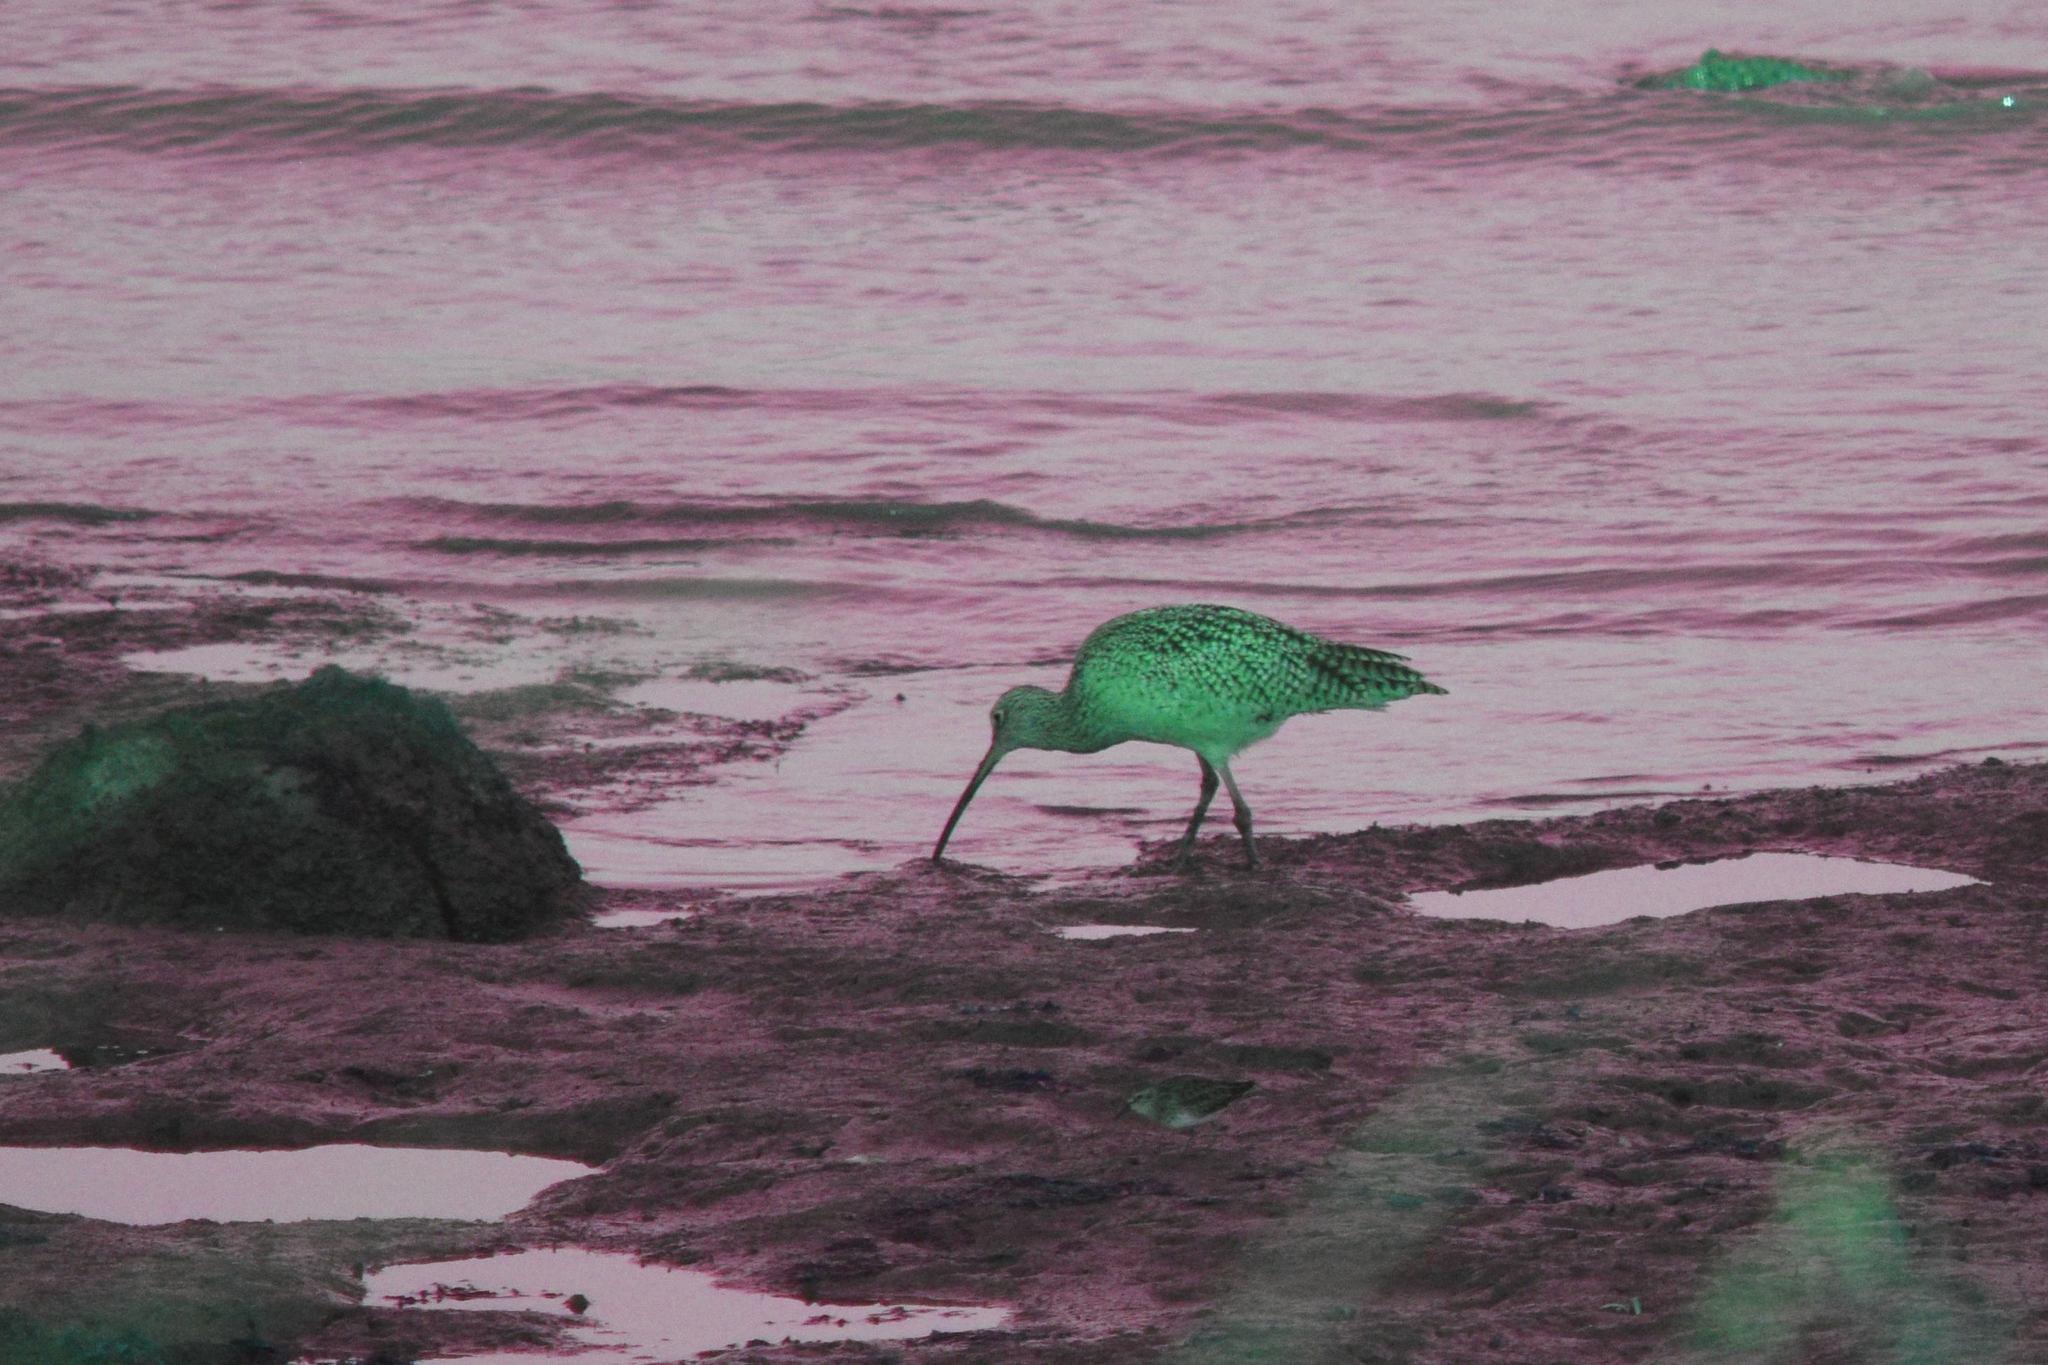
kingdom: Animalia
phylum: Chordata
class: Aves
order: Charadriiformes
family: Scolopacidae
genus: Numenius
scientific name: Numenius americanus
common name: Long-billed curlew
